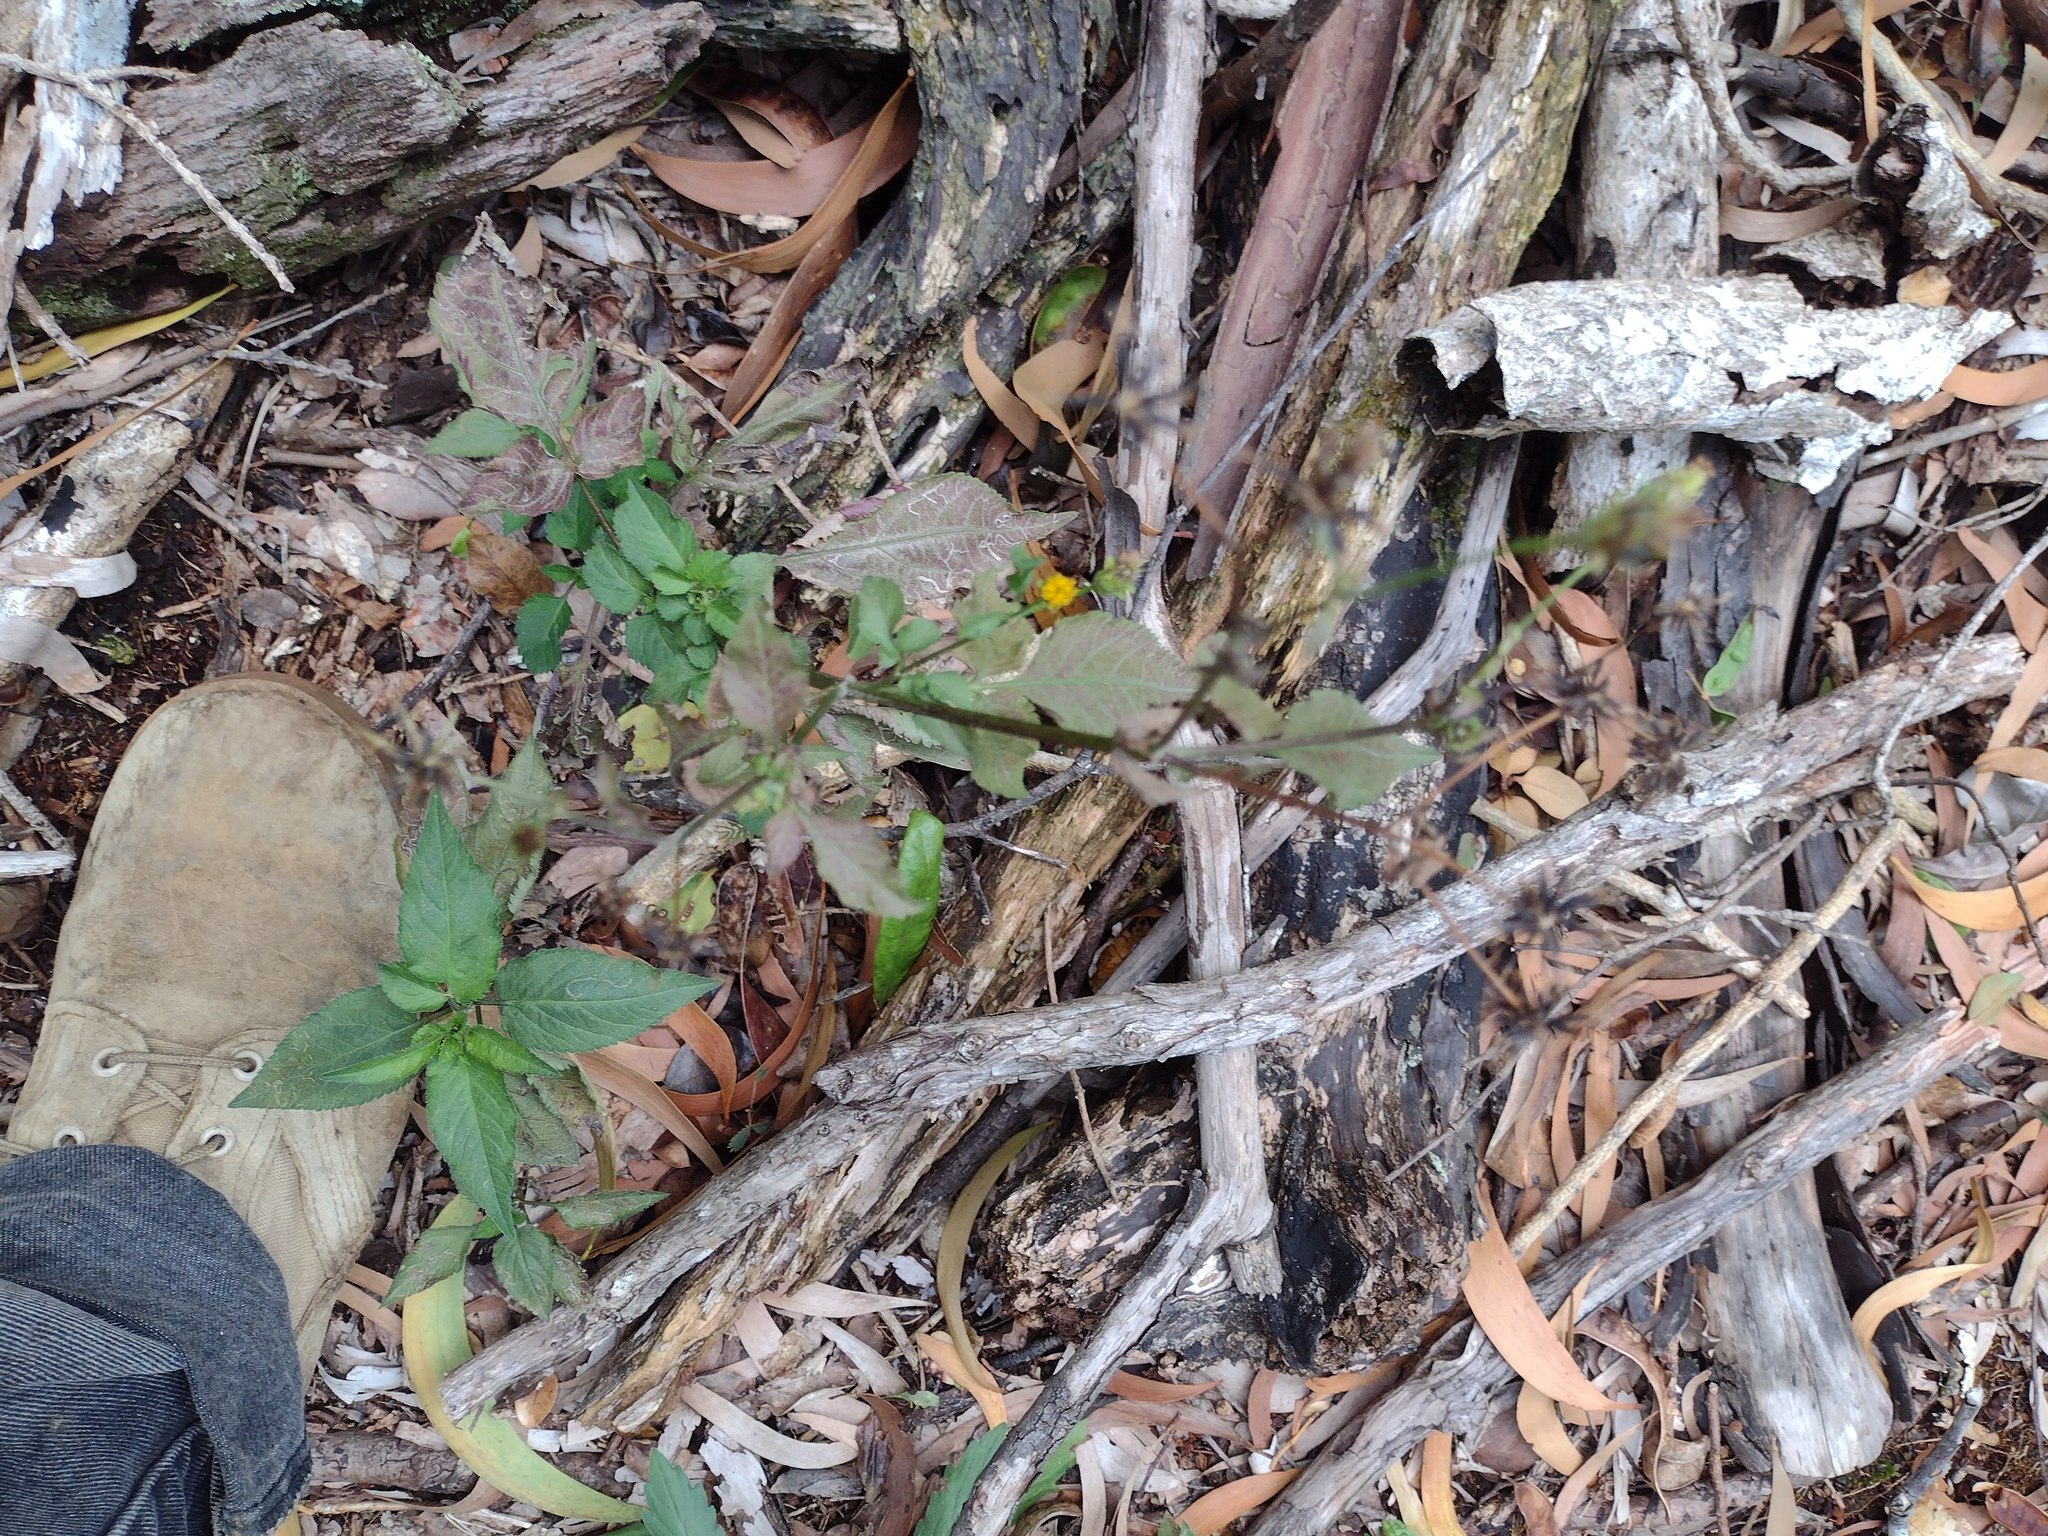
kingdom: Plantae
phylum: Tracheophyta
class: Magnoliopsida
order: Asterales
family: Asteraceae
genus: Bidens
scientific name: Bidens pilosa
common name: Black-jack
